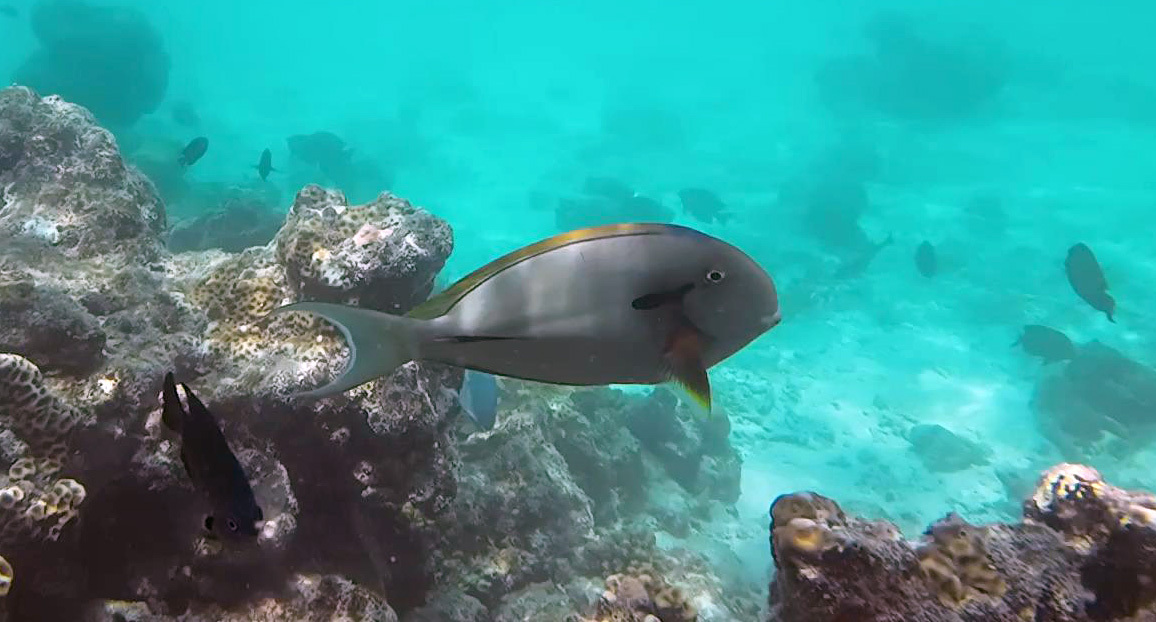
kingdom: Animalia
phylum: Chordata
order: Perciformes
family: Acanthuridae
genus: Acanthurus
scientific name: Acanthurus nigricauda
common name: Black-barred surgeonfish
